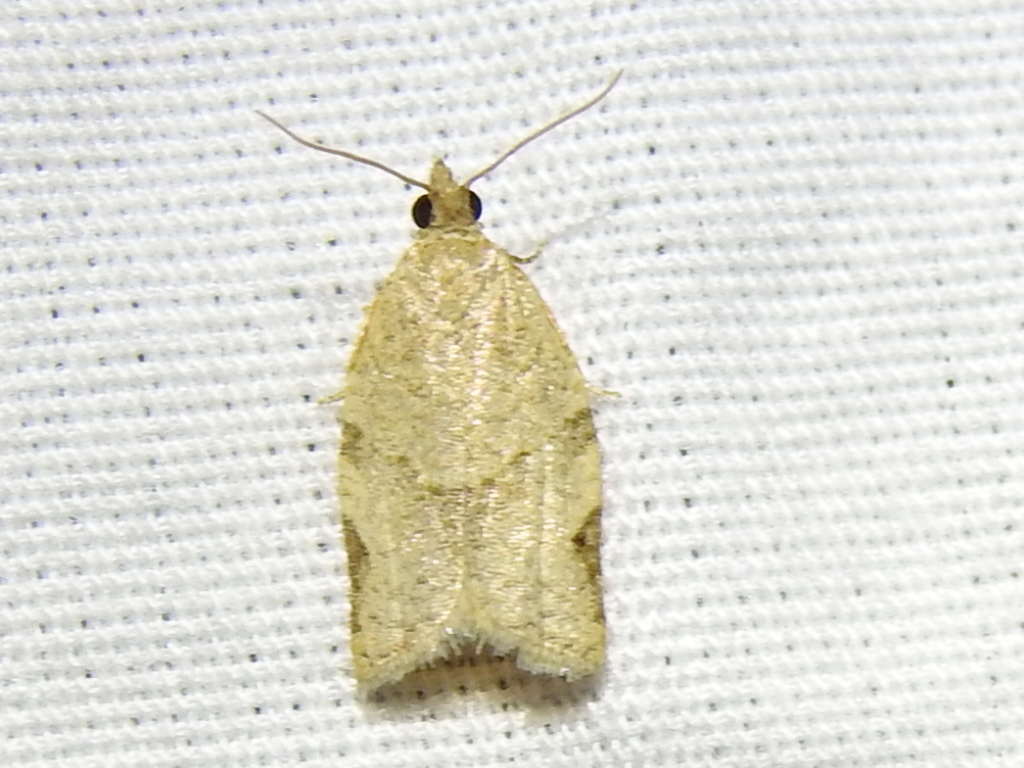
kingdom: Animalia
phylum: Arthropoda
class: Insecta
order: Lepidoptera
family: Tortricidae
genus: Clepsis
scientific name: Clepsis virescana
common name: Greenish apple moth
